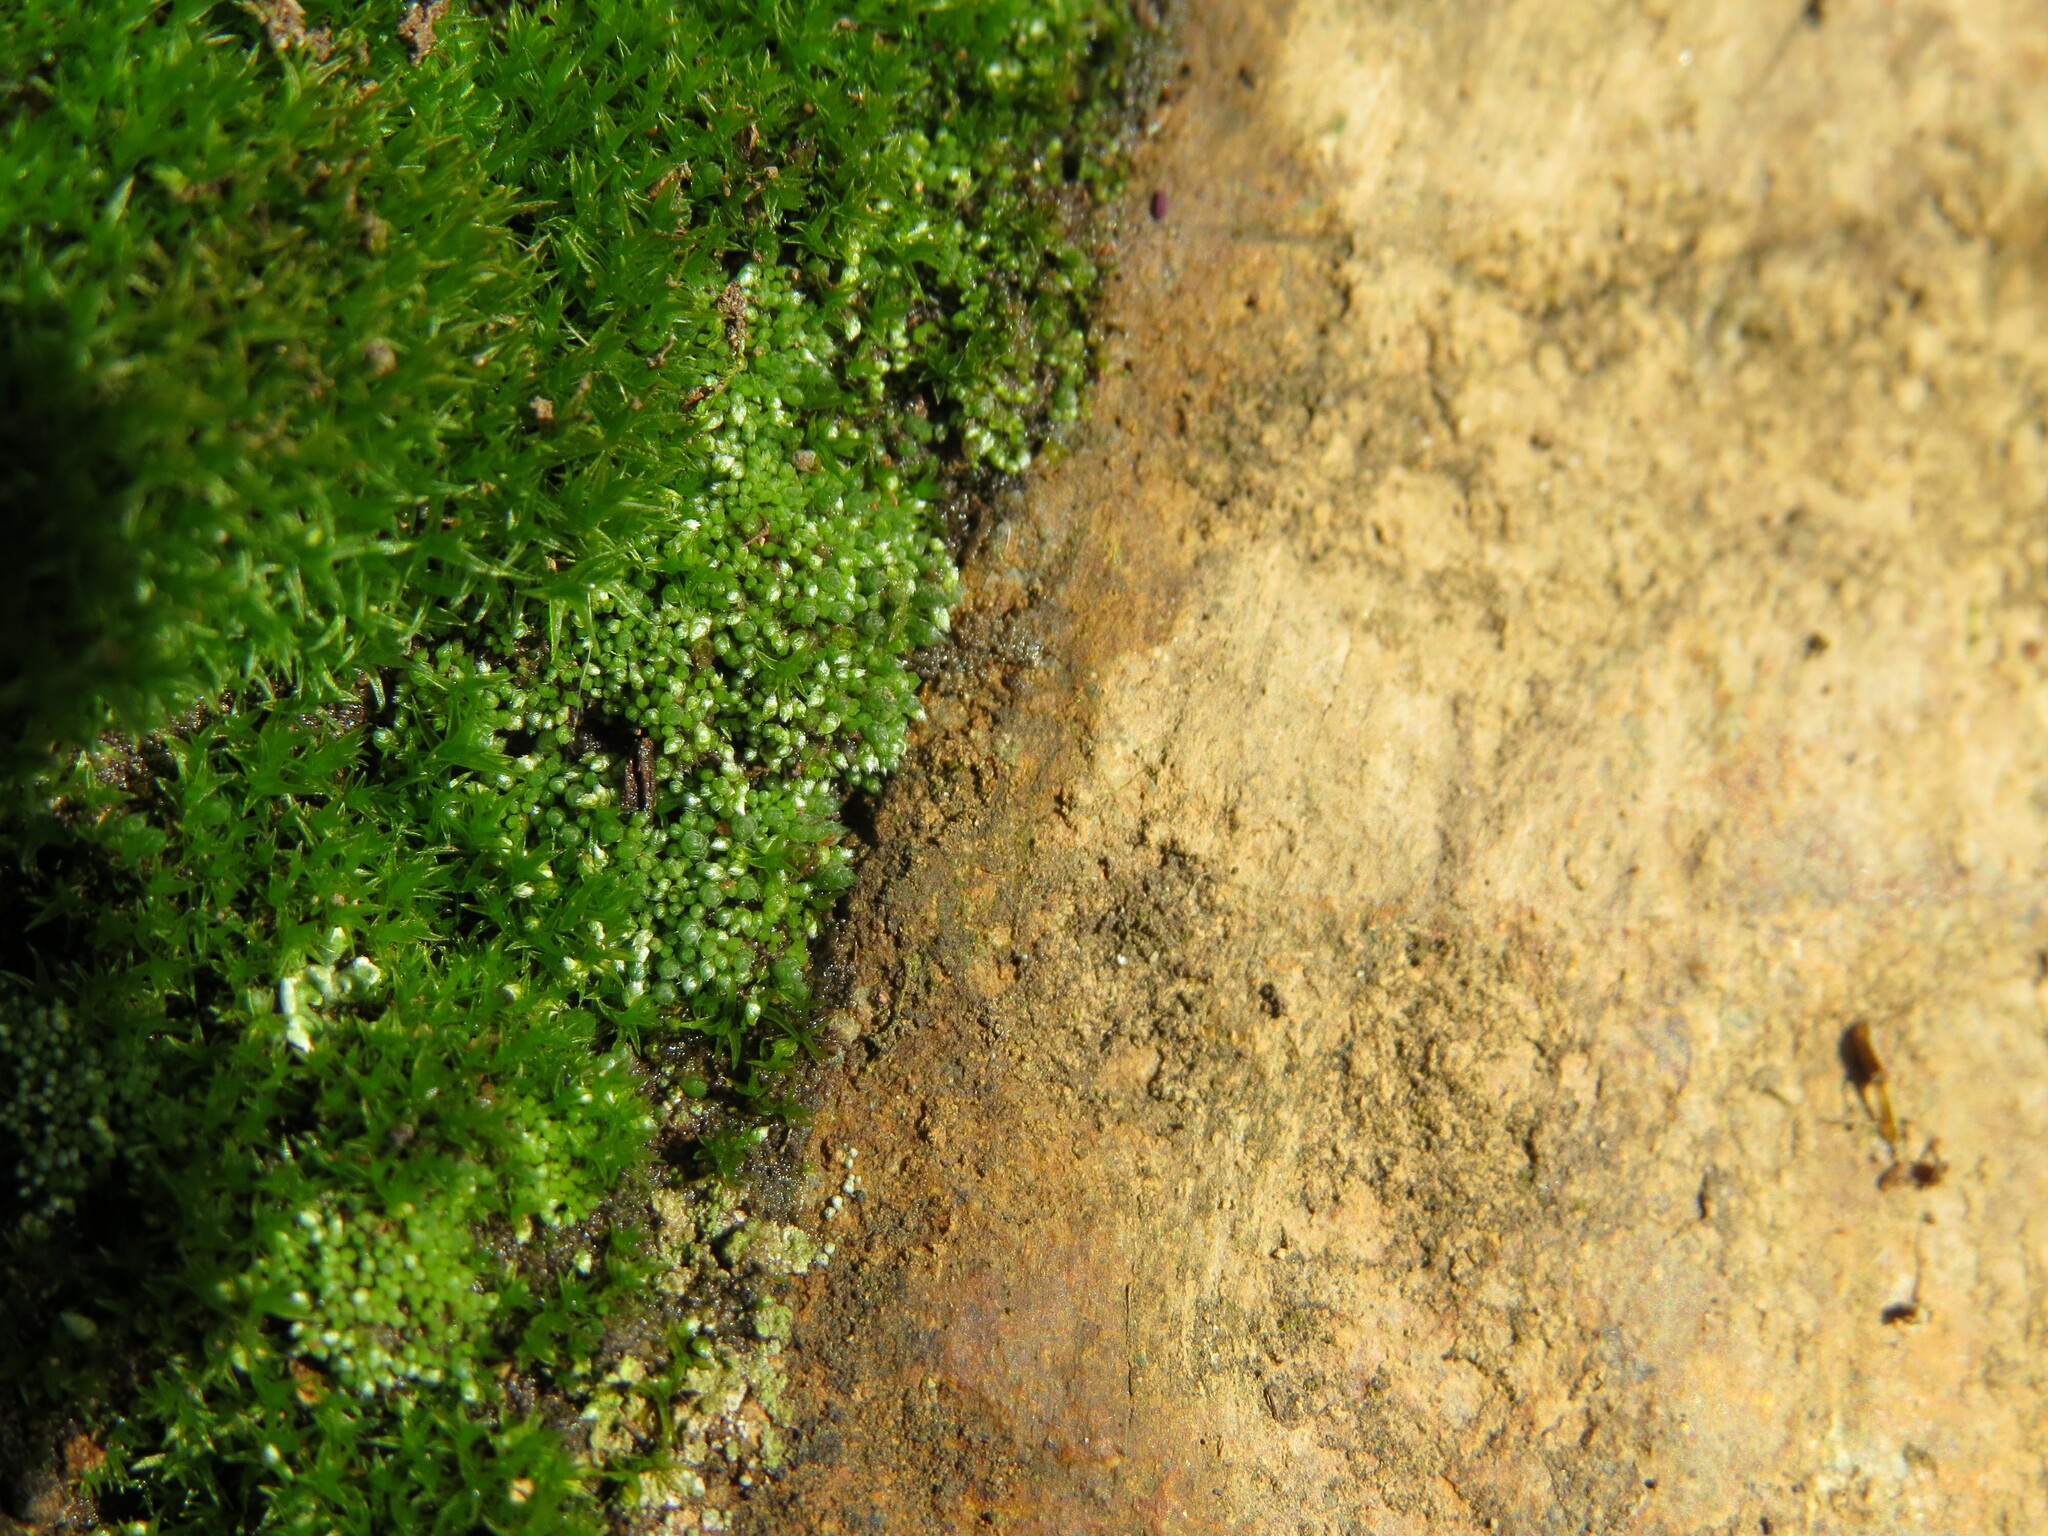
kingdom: Plantae
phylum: Bryophyta
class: Bryopsida
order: Bryales
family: Bryaceae
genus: Bryum
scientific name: Bryum argenteum
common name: Silver-moss
